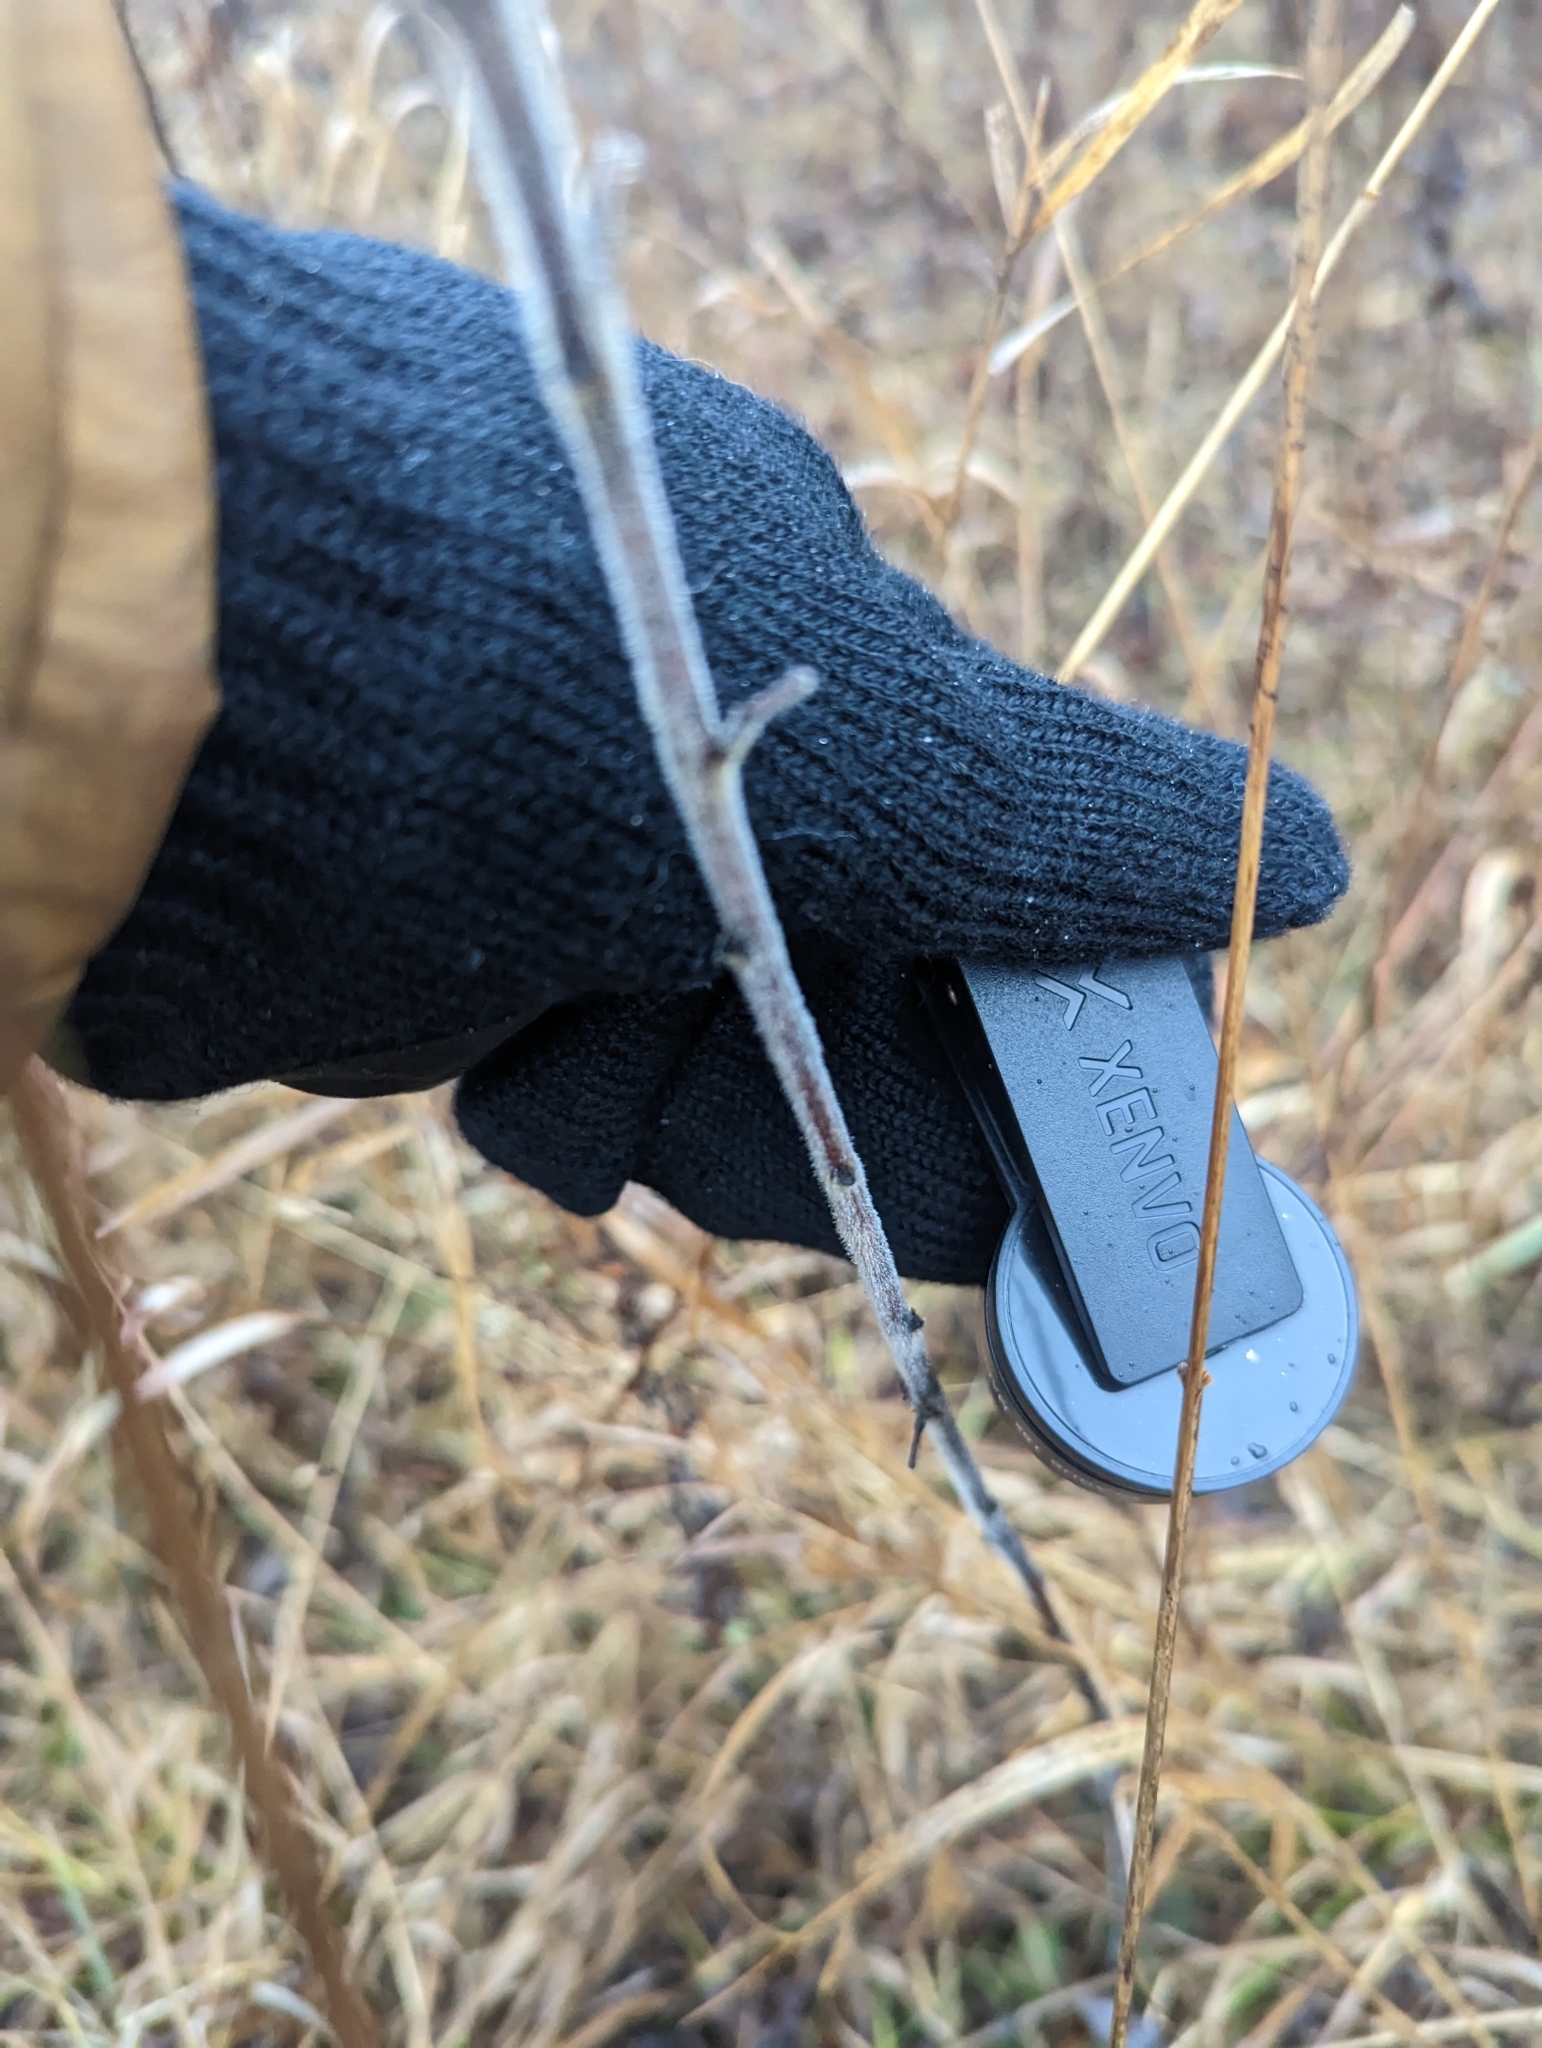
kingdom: Plantae
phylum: Tracheophyta
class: Magnoliopsida
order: Fabales
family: Fabaceae
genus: Lespedeza
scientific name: Lespedeza capitata
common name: Dusty clover
